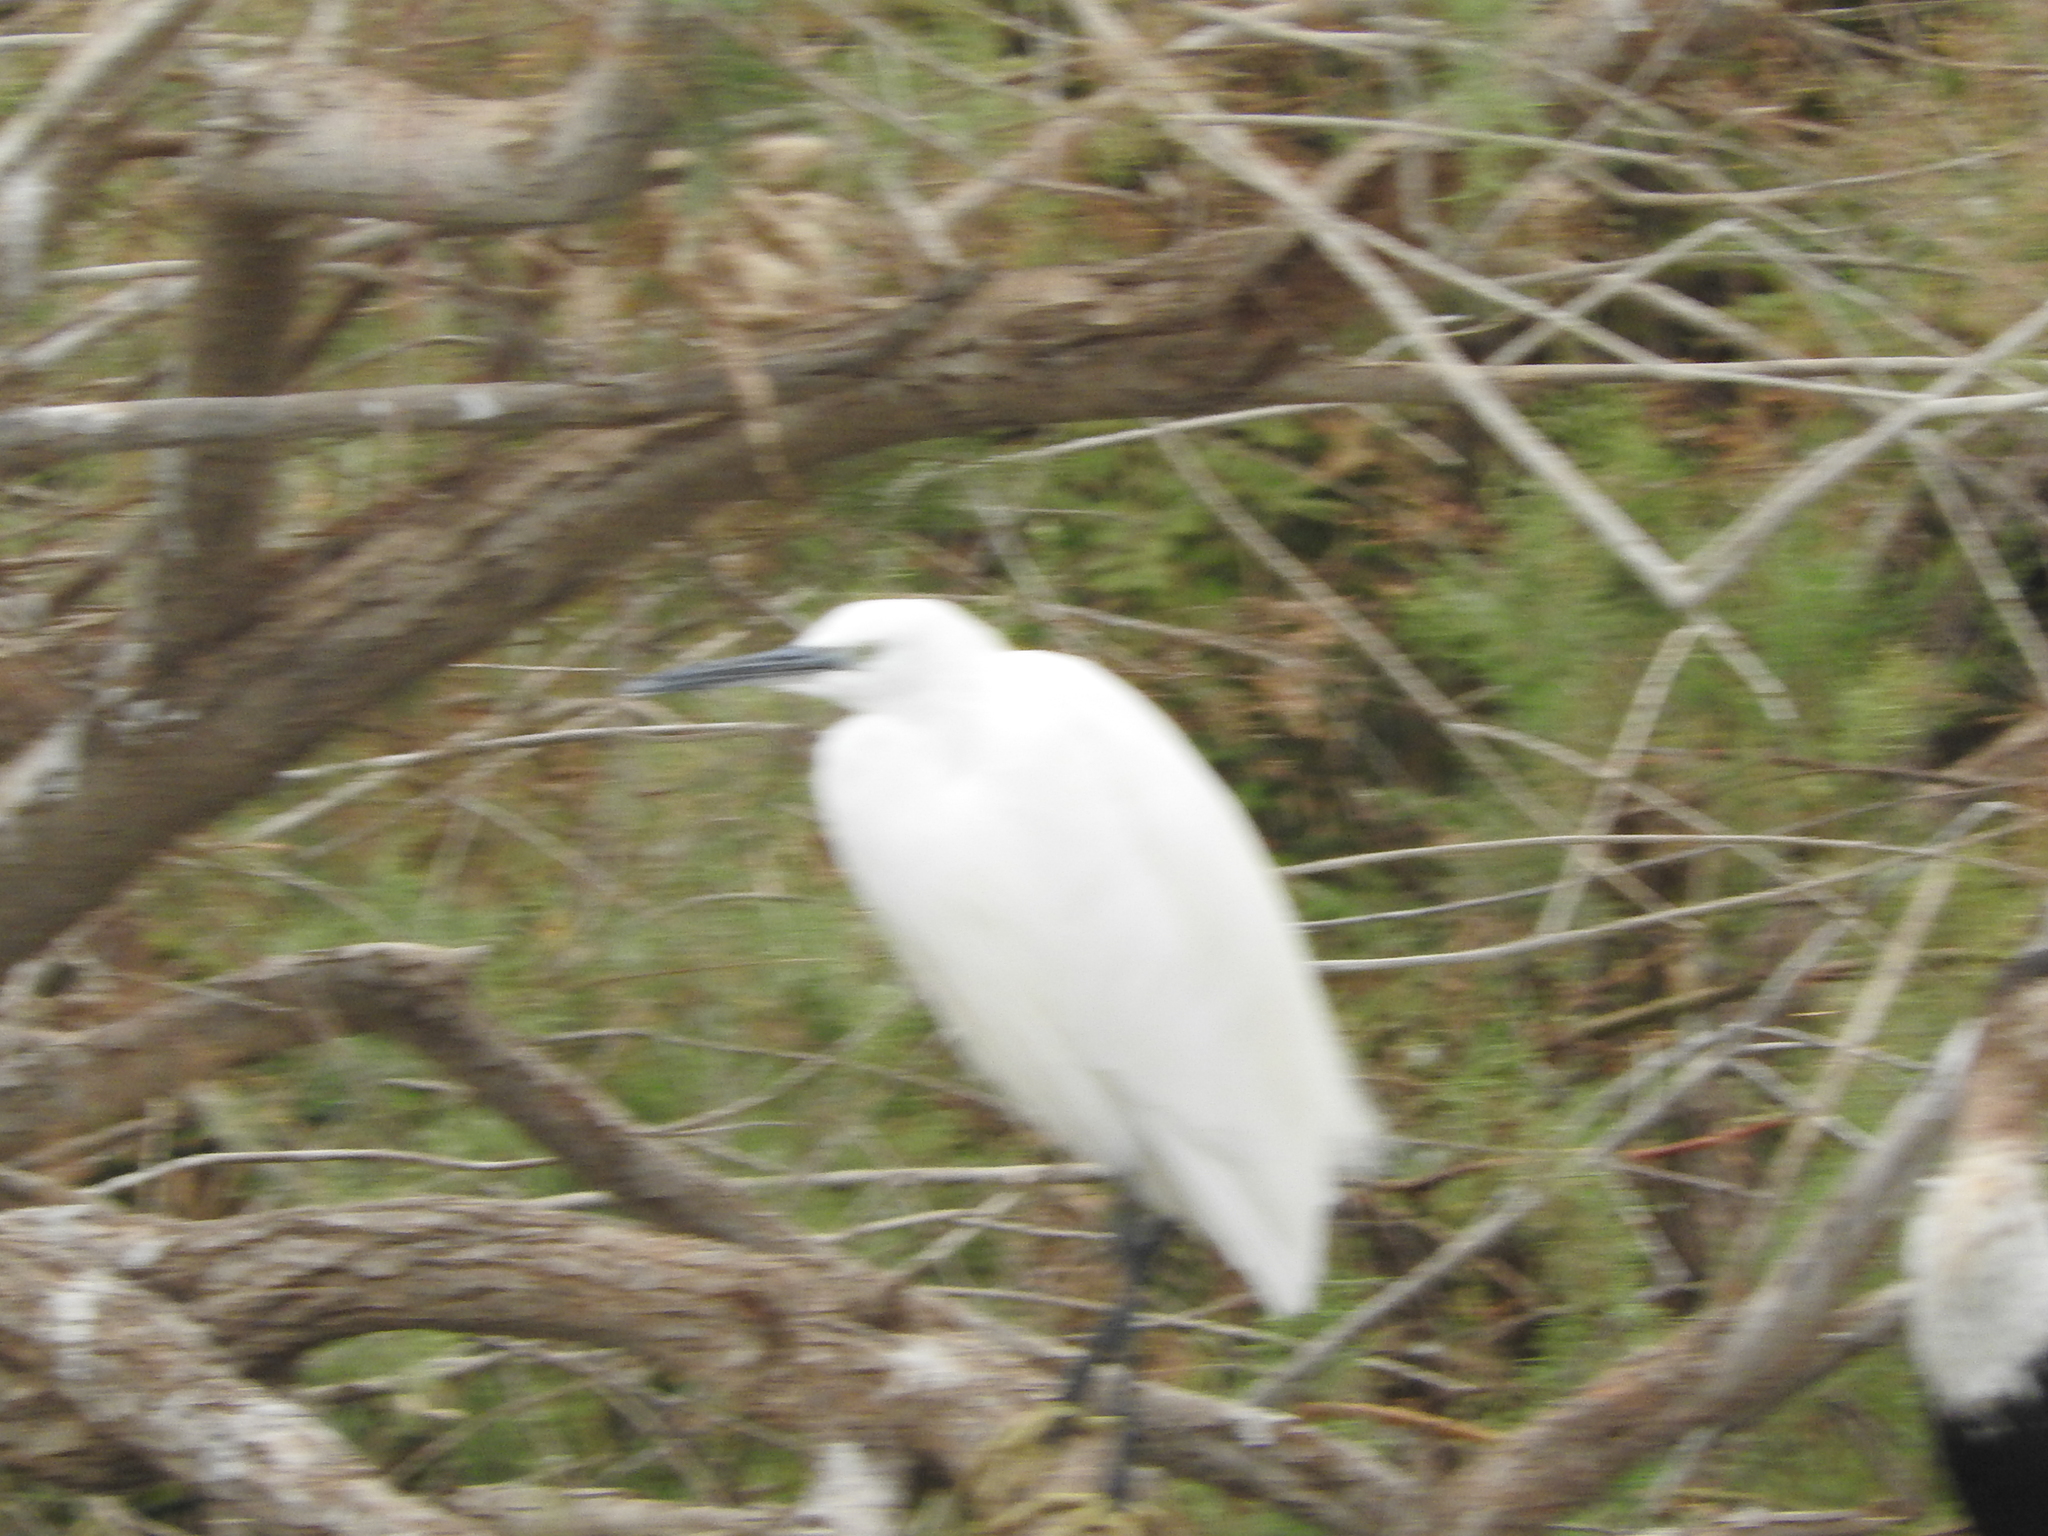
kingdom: Animalia
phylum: Chordata
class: Aves
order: Pelecaniformes
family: Ardeidae
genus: Egretta
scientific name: Egretta garzetta
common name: Little egret
